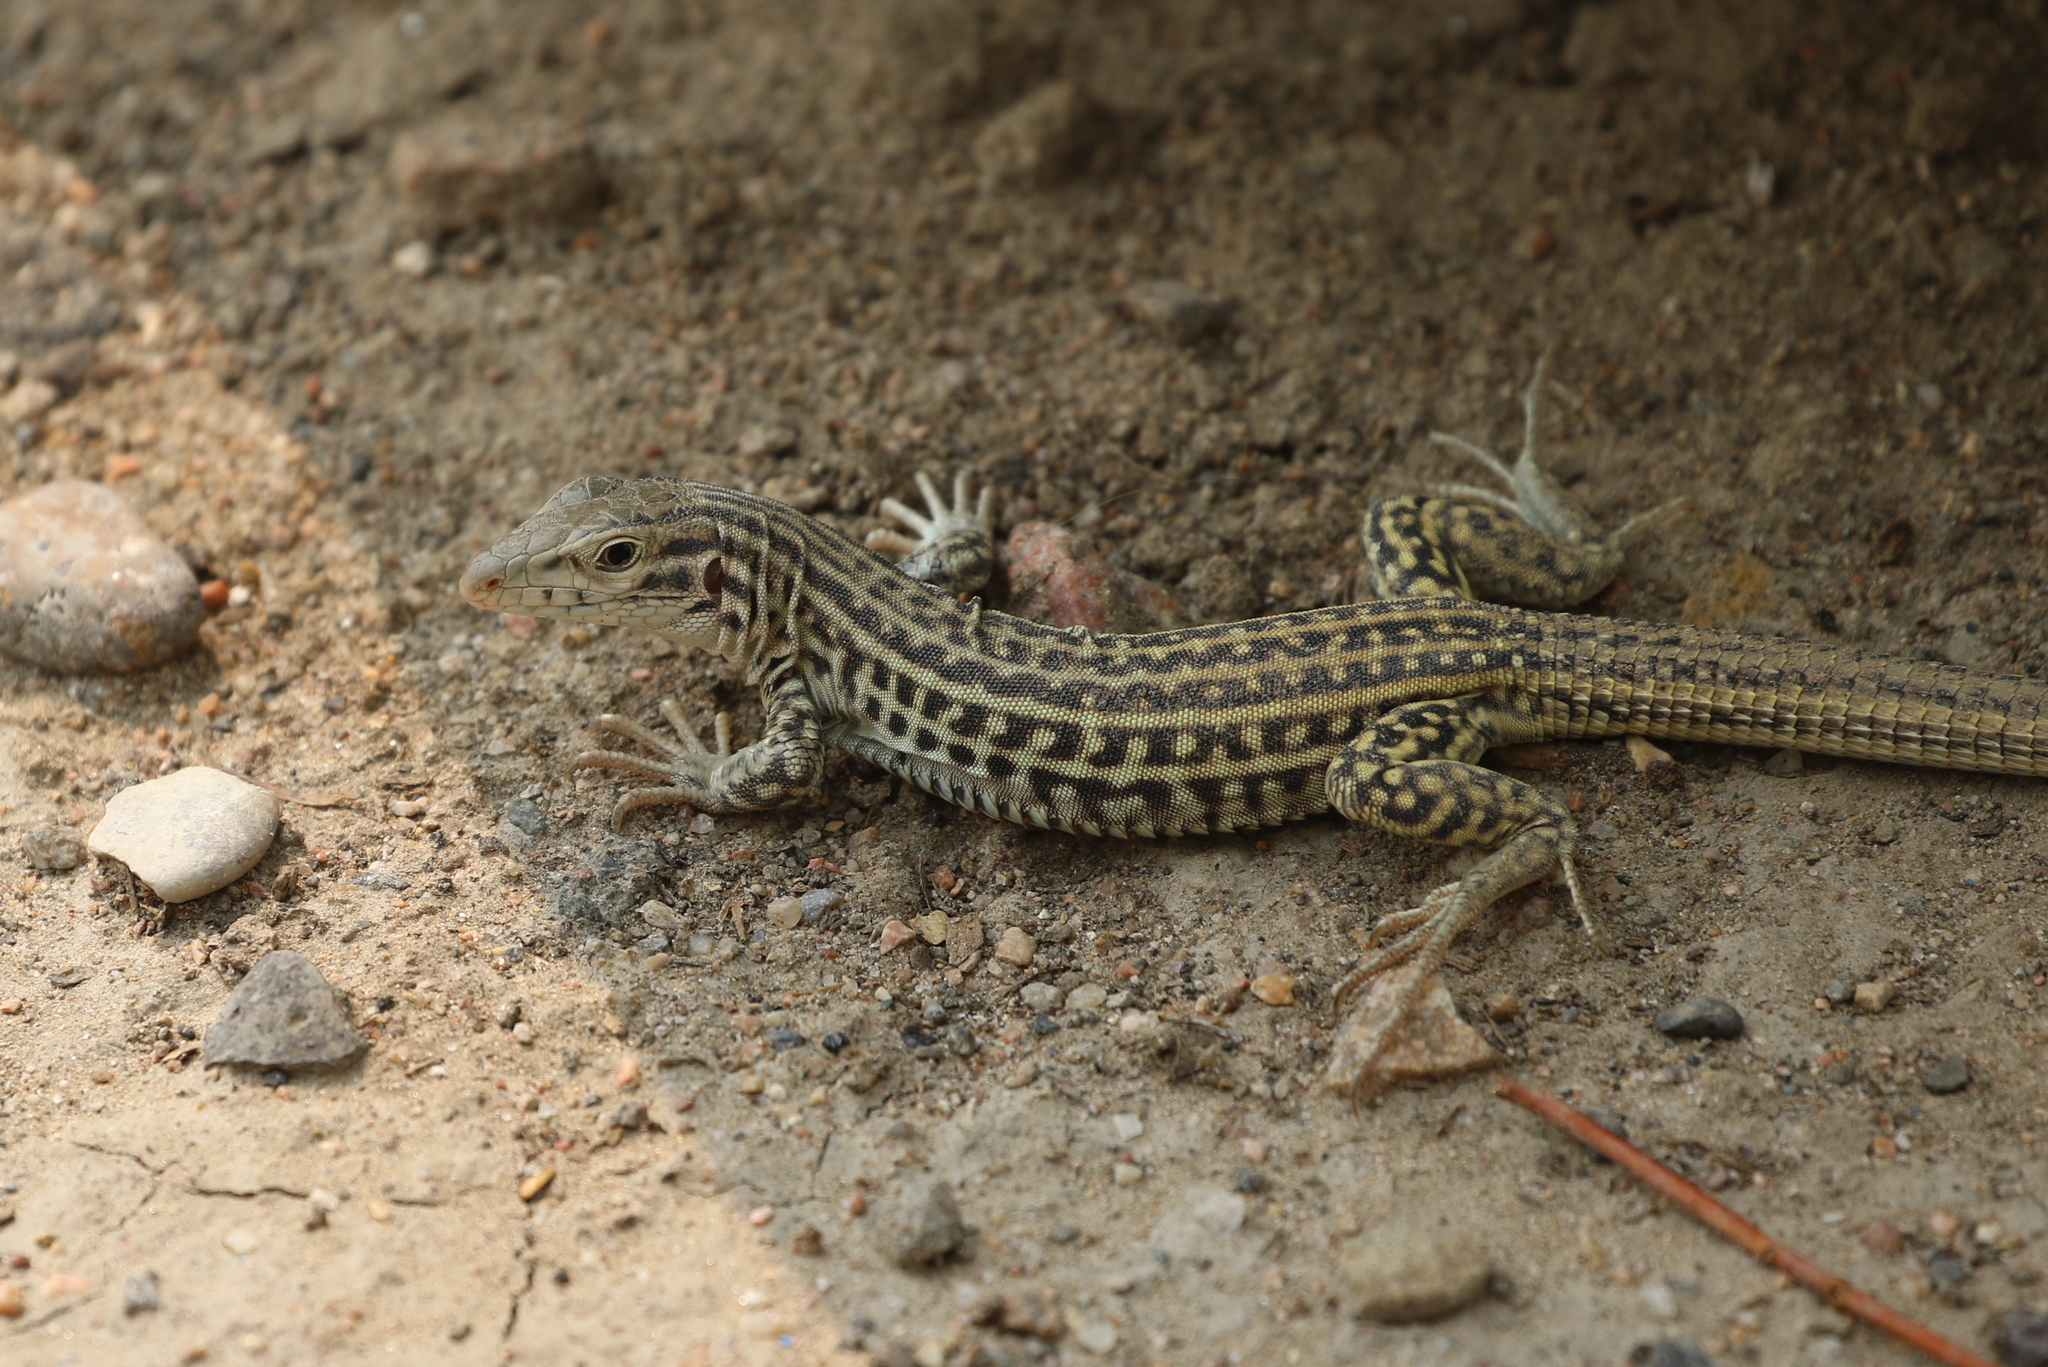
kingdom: Animalia
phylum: Chordata
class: Squamata
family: Teiidae
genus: Aspidoscelis
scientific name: Aspidoscelis neotesselatus
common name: Colorado checkered whiptail
